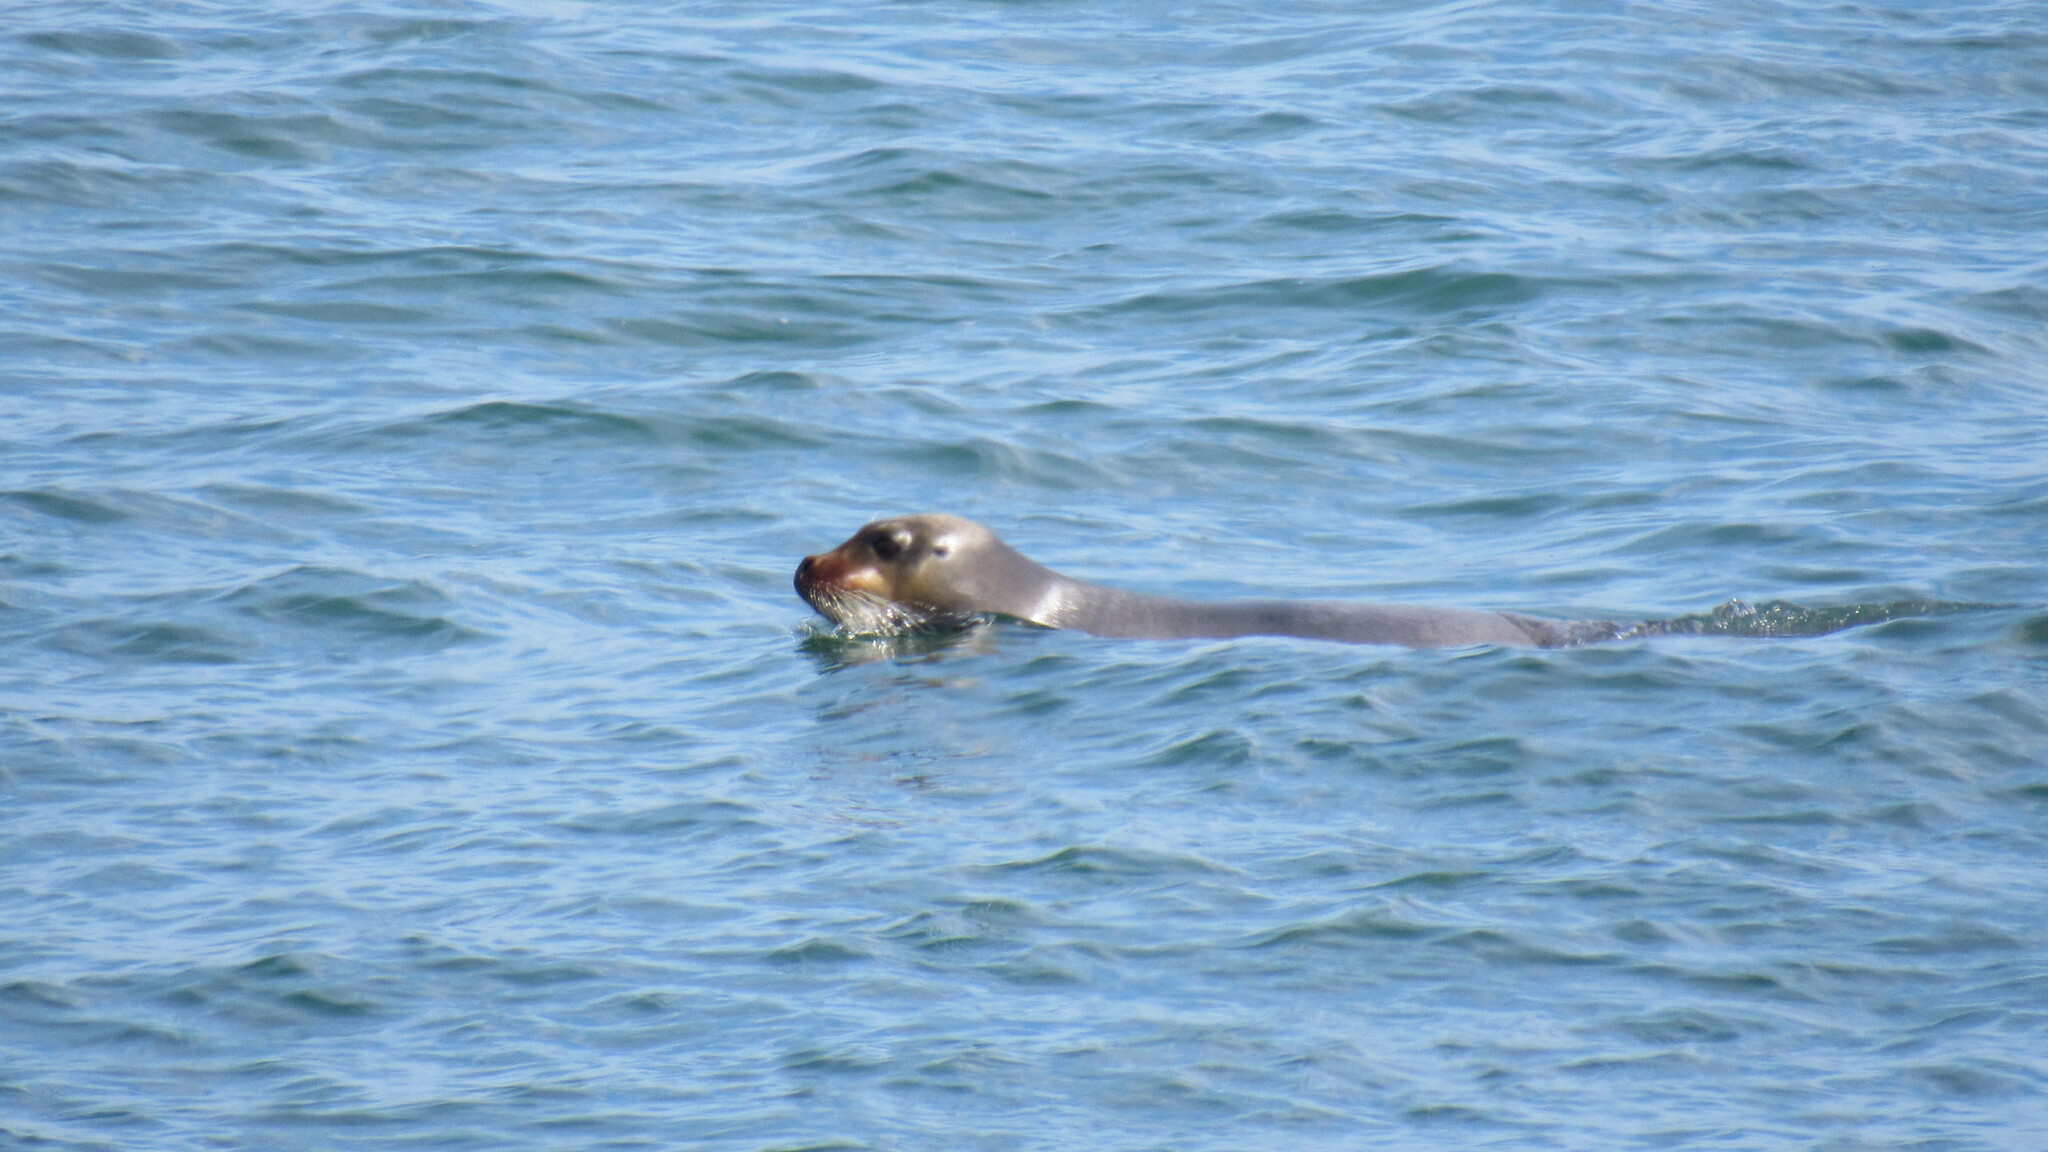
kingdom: Animalia
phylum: Chordata
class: Mammalia
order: Carnivora
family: Phocidae
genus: Erignathus
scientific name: Erignathus barbatus
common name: Bearded seal
